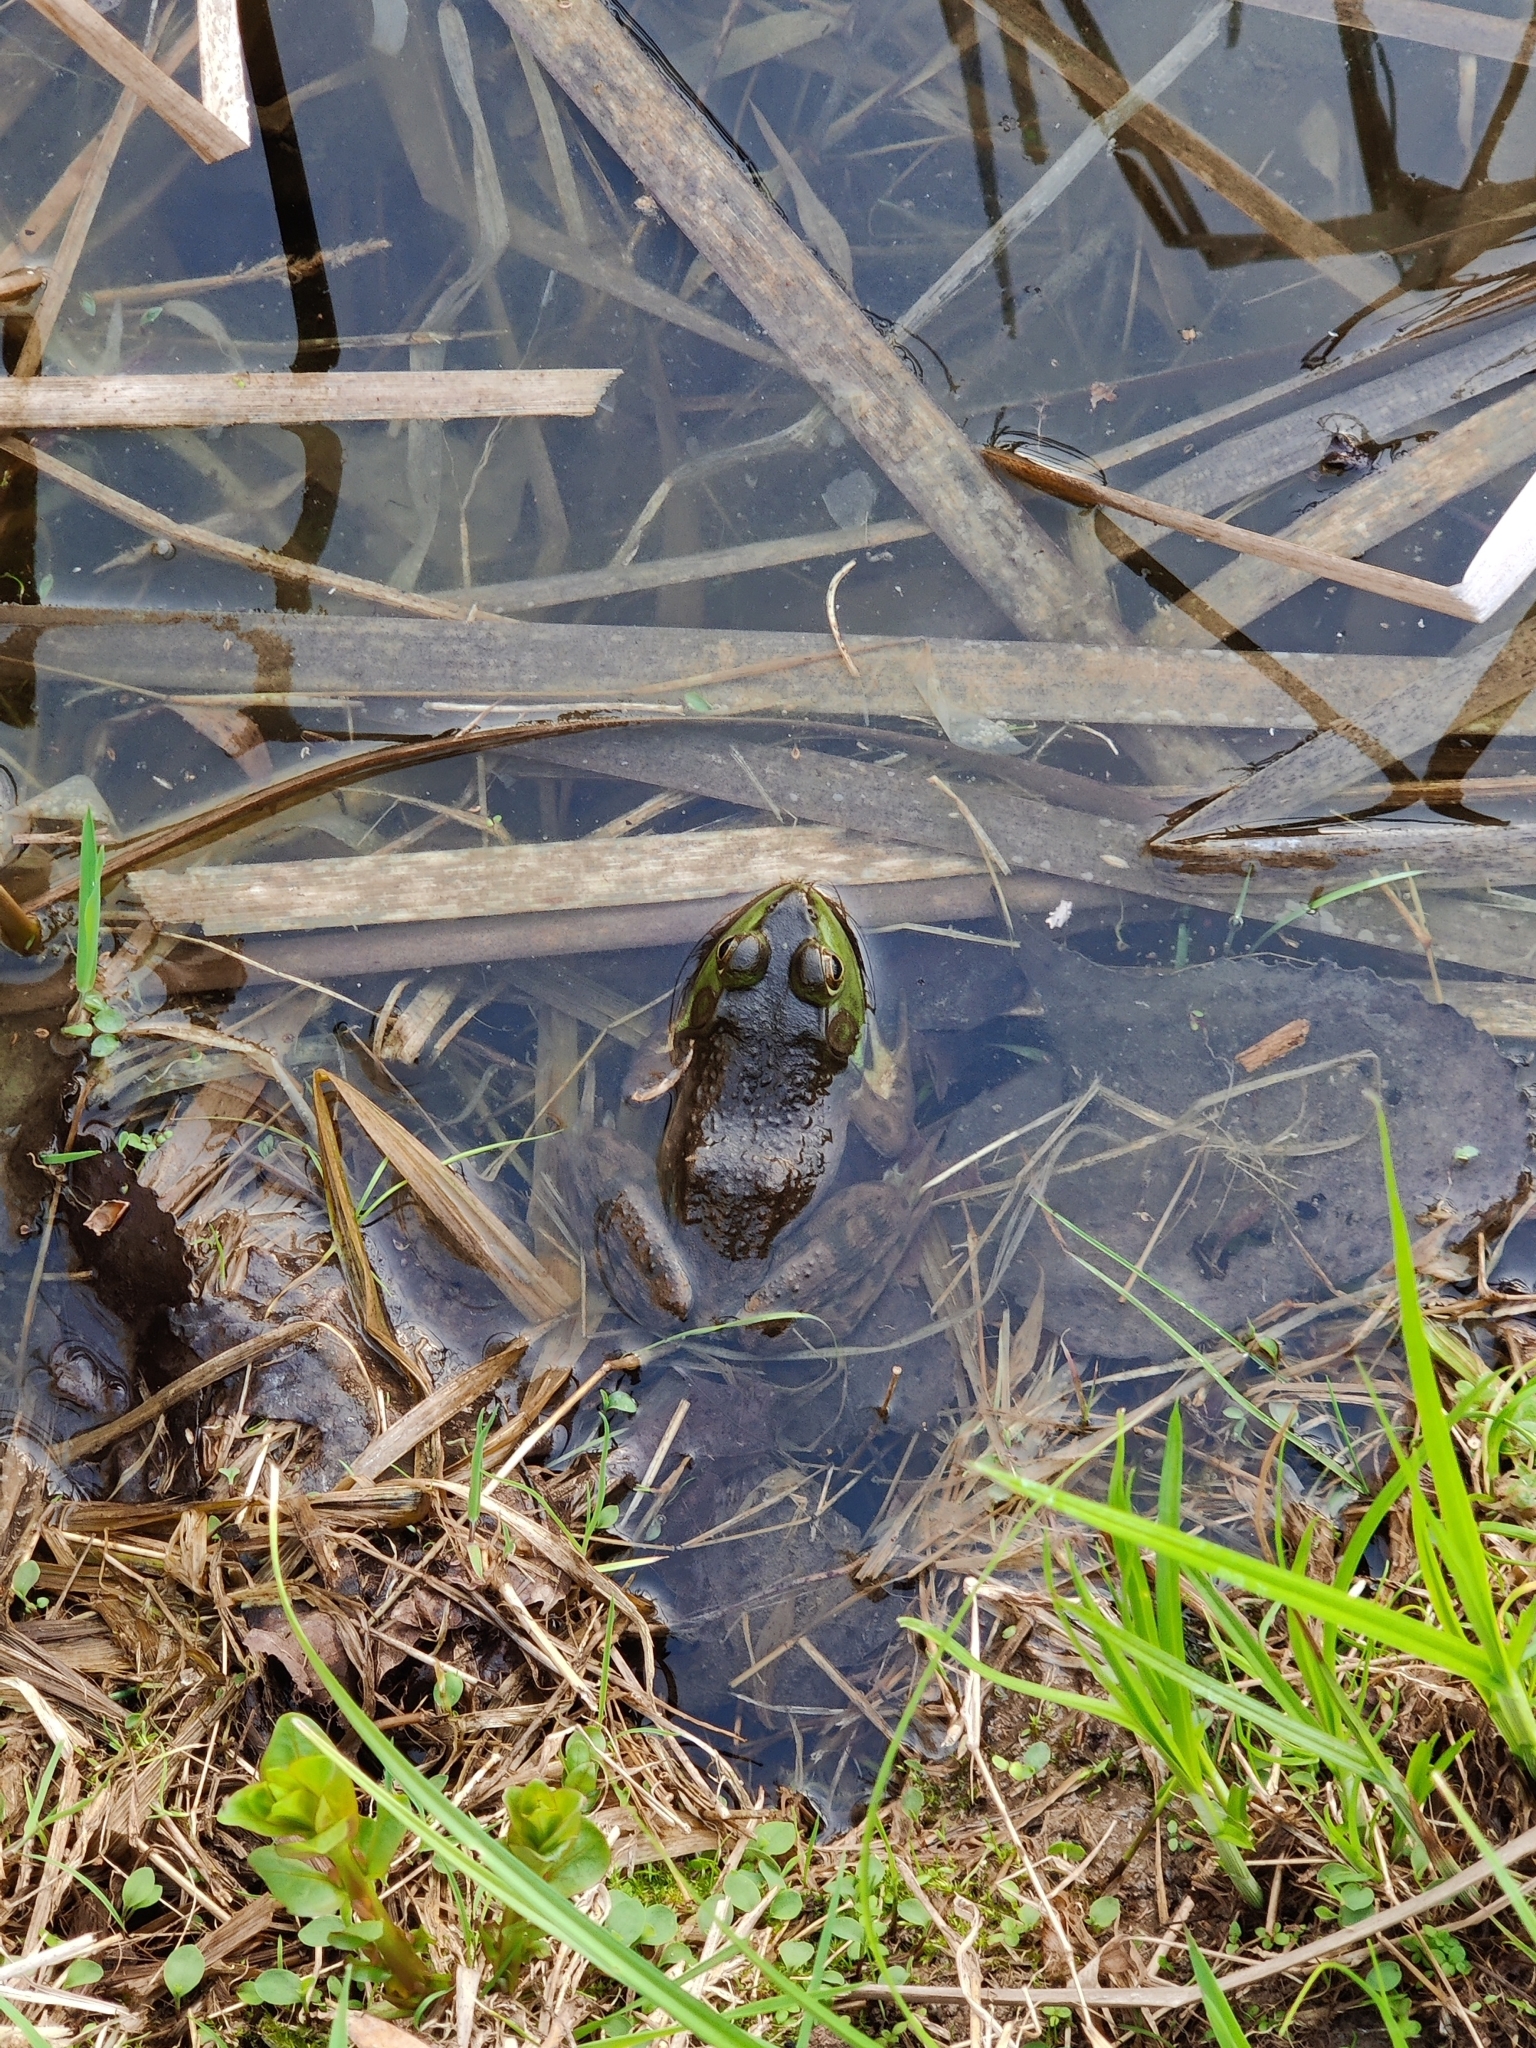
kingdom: Animalia
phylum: Chordata
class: Amphibia
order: Anura
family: Ranidae
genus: Lithobates
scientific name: Lithobates catesbeianus
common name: American bullfrog
